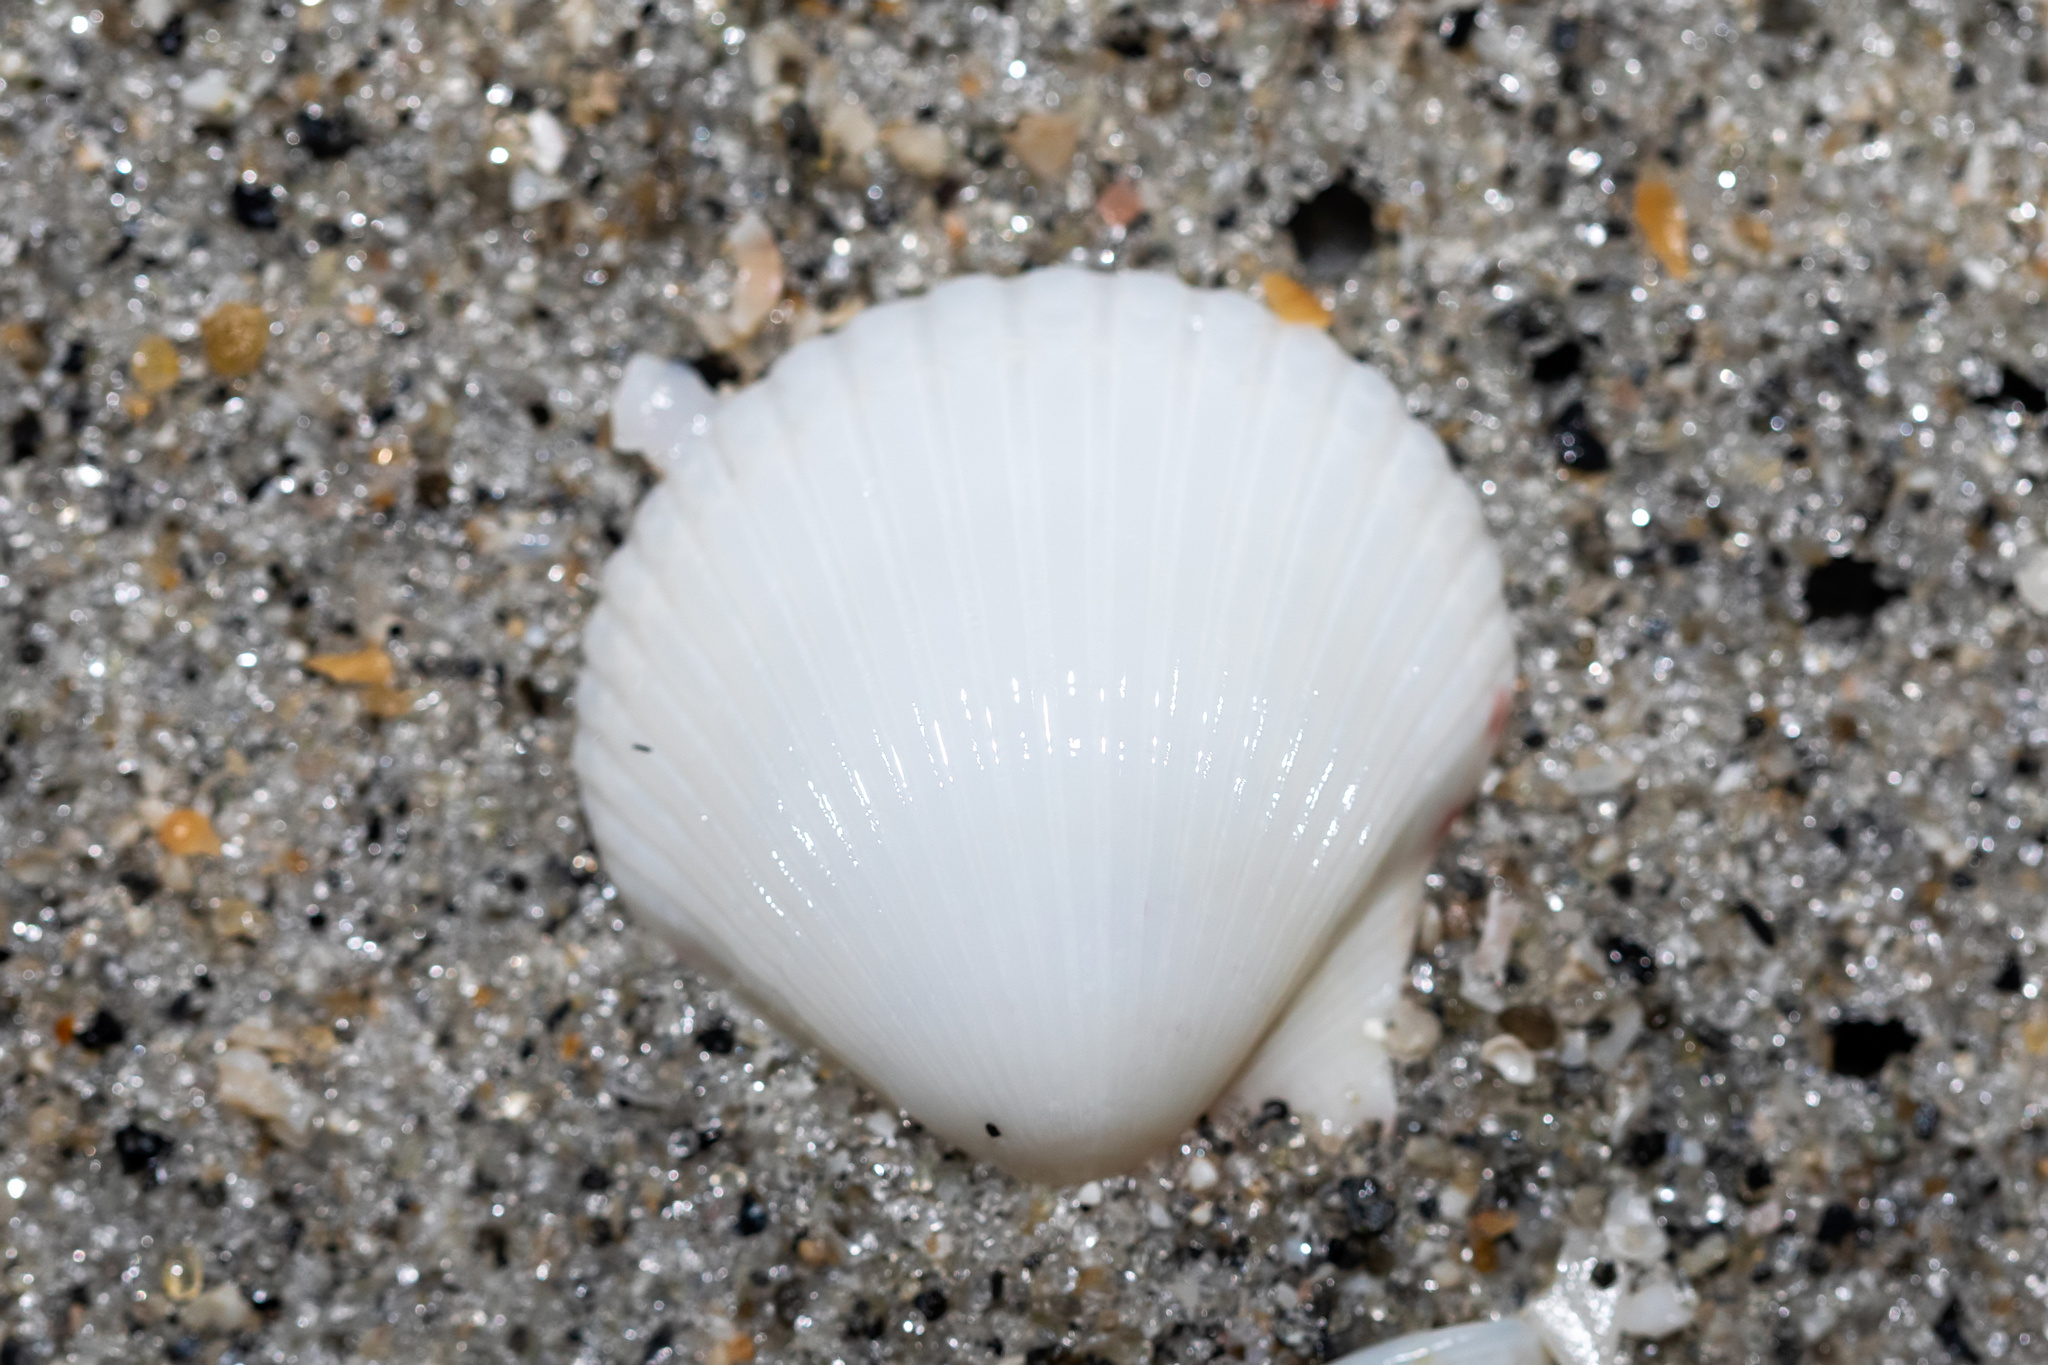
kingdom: Animalia
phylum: Mollusca
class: Bivalvia
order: Pectinida
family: Pectinidae
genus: Argopecten
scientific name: Argopecten irradians
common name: Atlantic bay scallop
